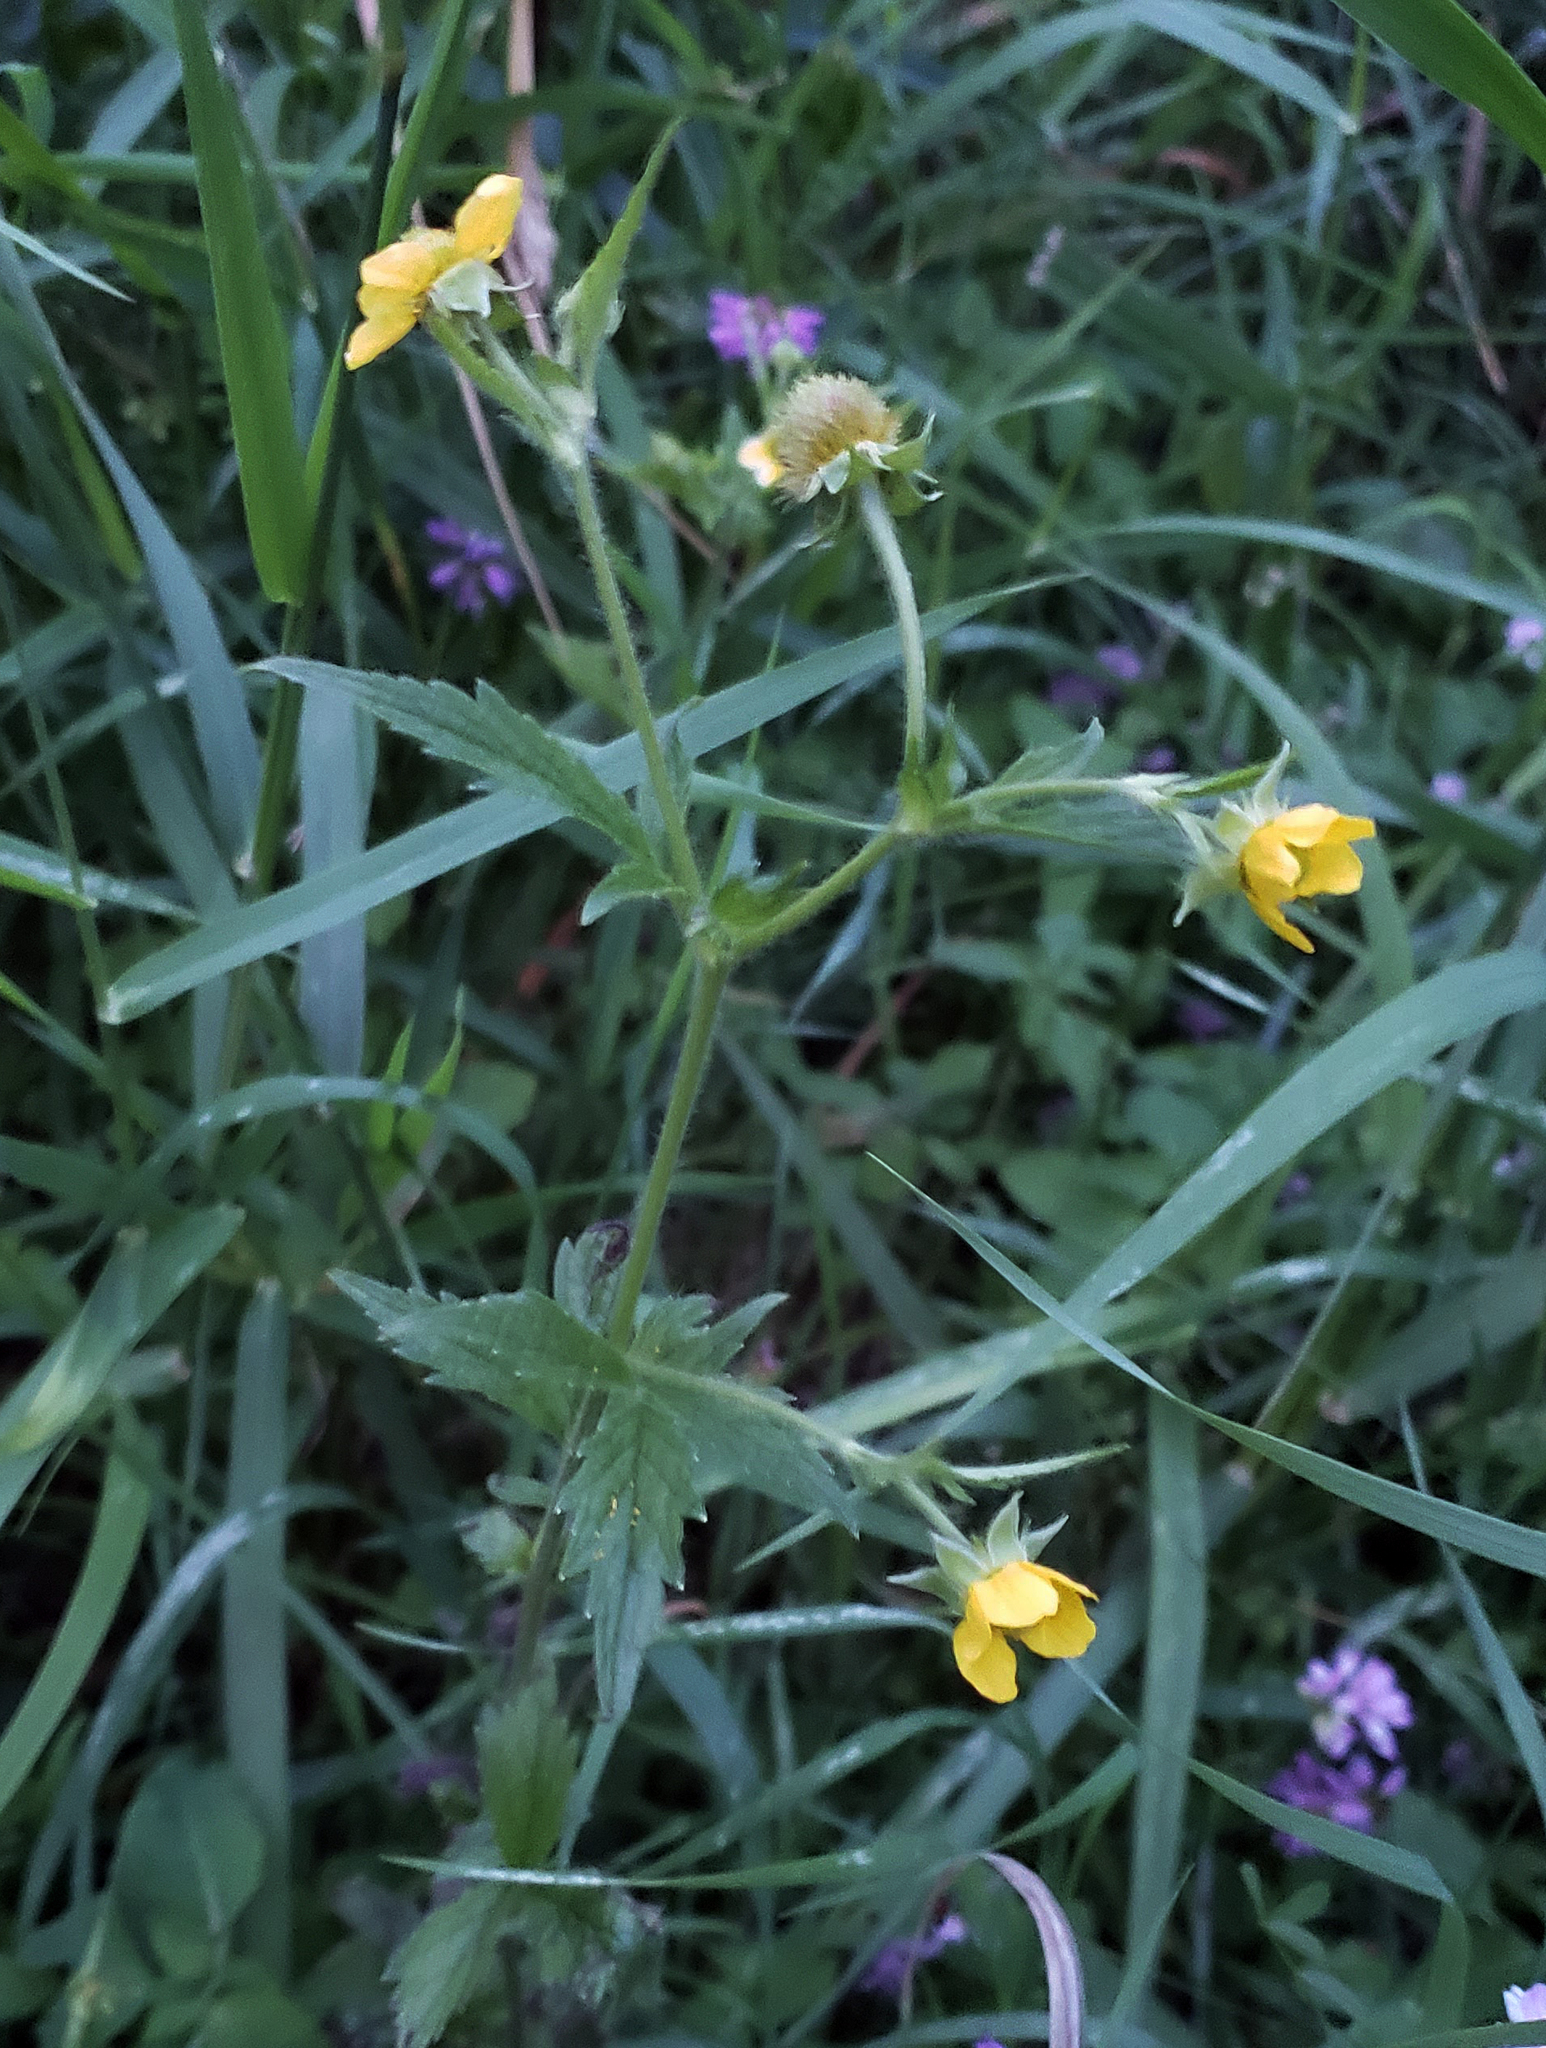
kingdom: Plantae
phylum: Tracheophyta
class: Magnoliopsida
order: Rosales
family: Rosaceae
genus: Geum
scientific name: Geum aleppicum
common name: Yellow avens
